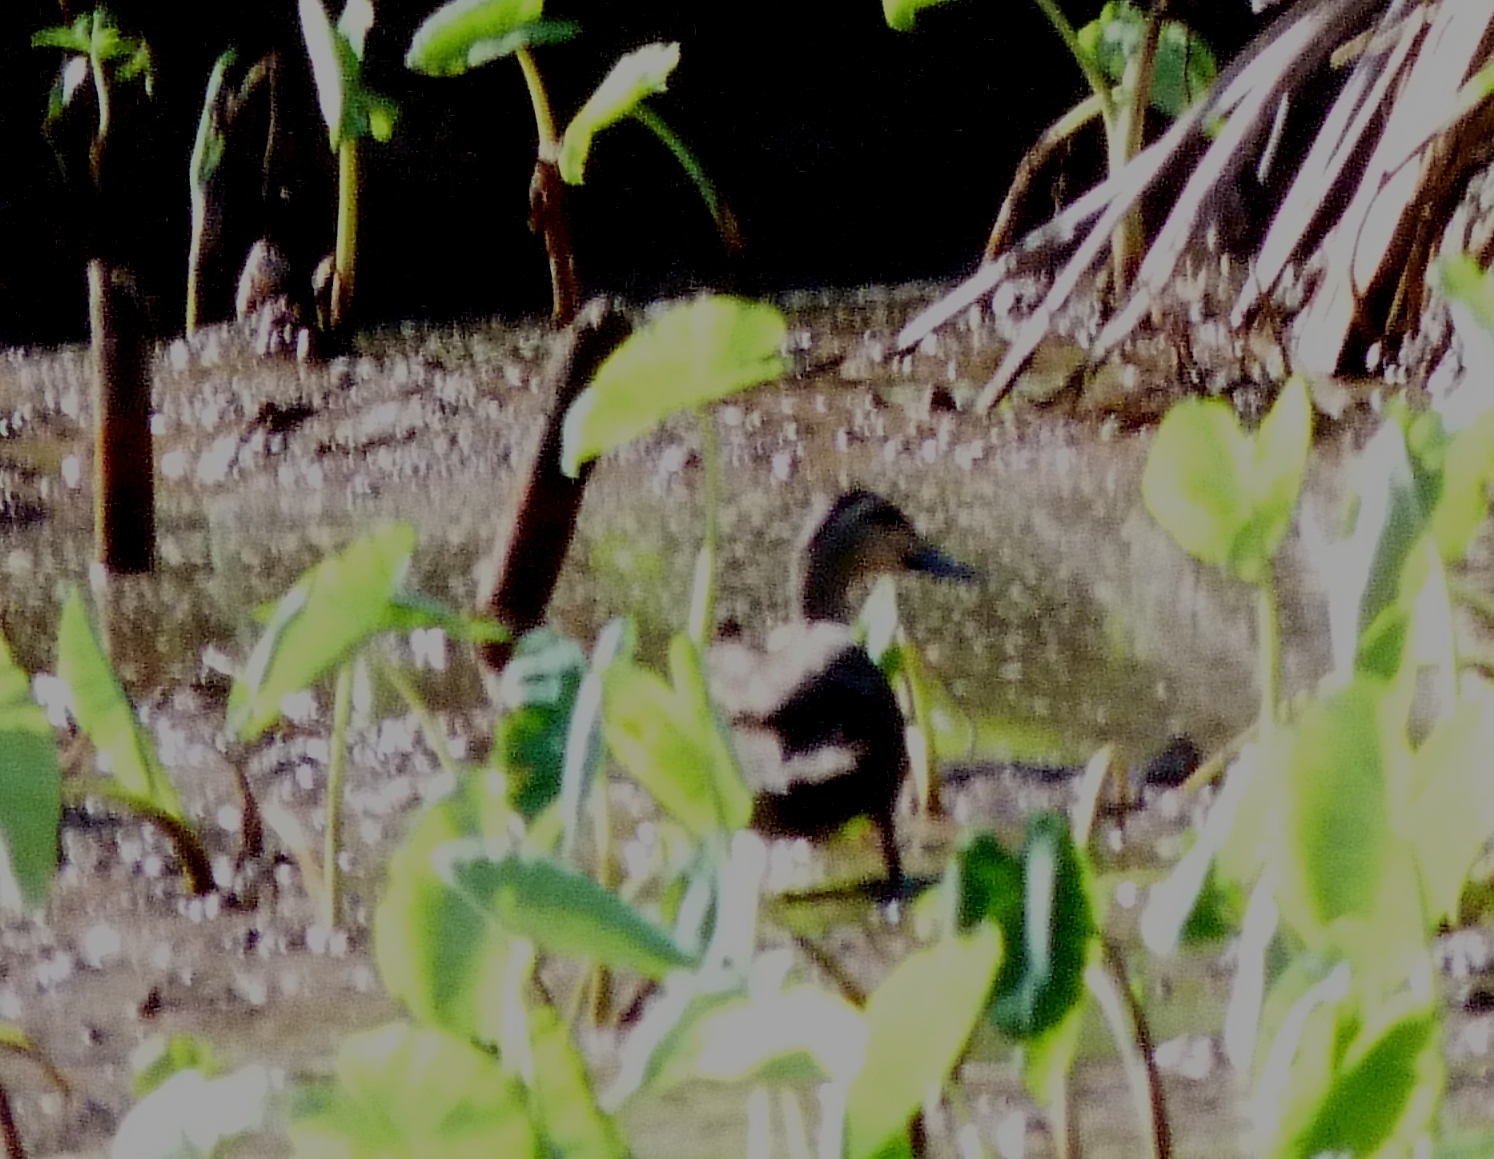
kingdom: Animalia
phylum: Chordata
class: Aves
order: Anseriformes
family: Anatidae
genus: Anas
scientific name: Anas superciliosa
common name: Pacific black duck
